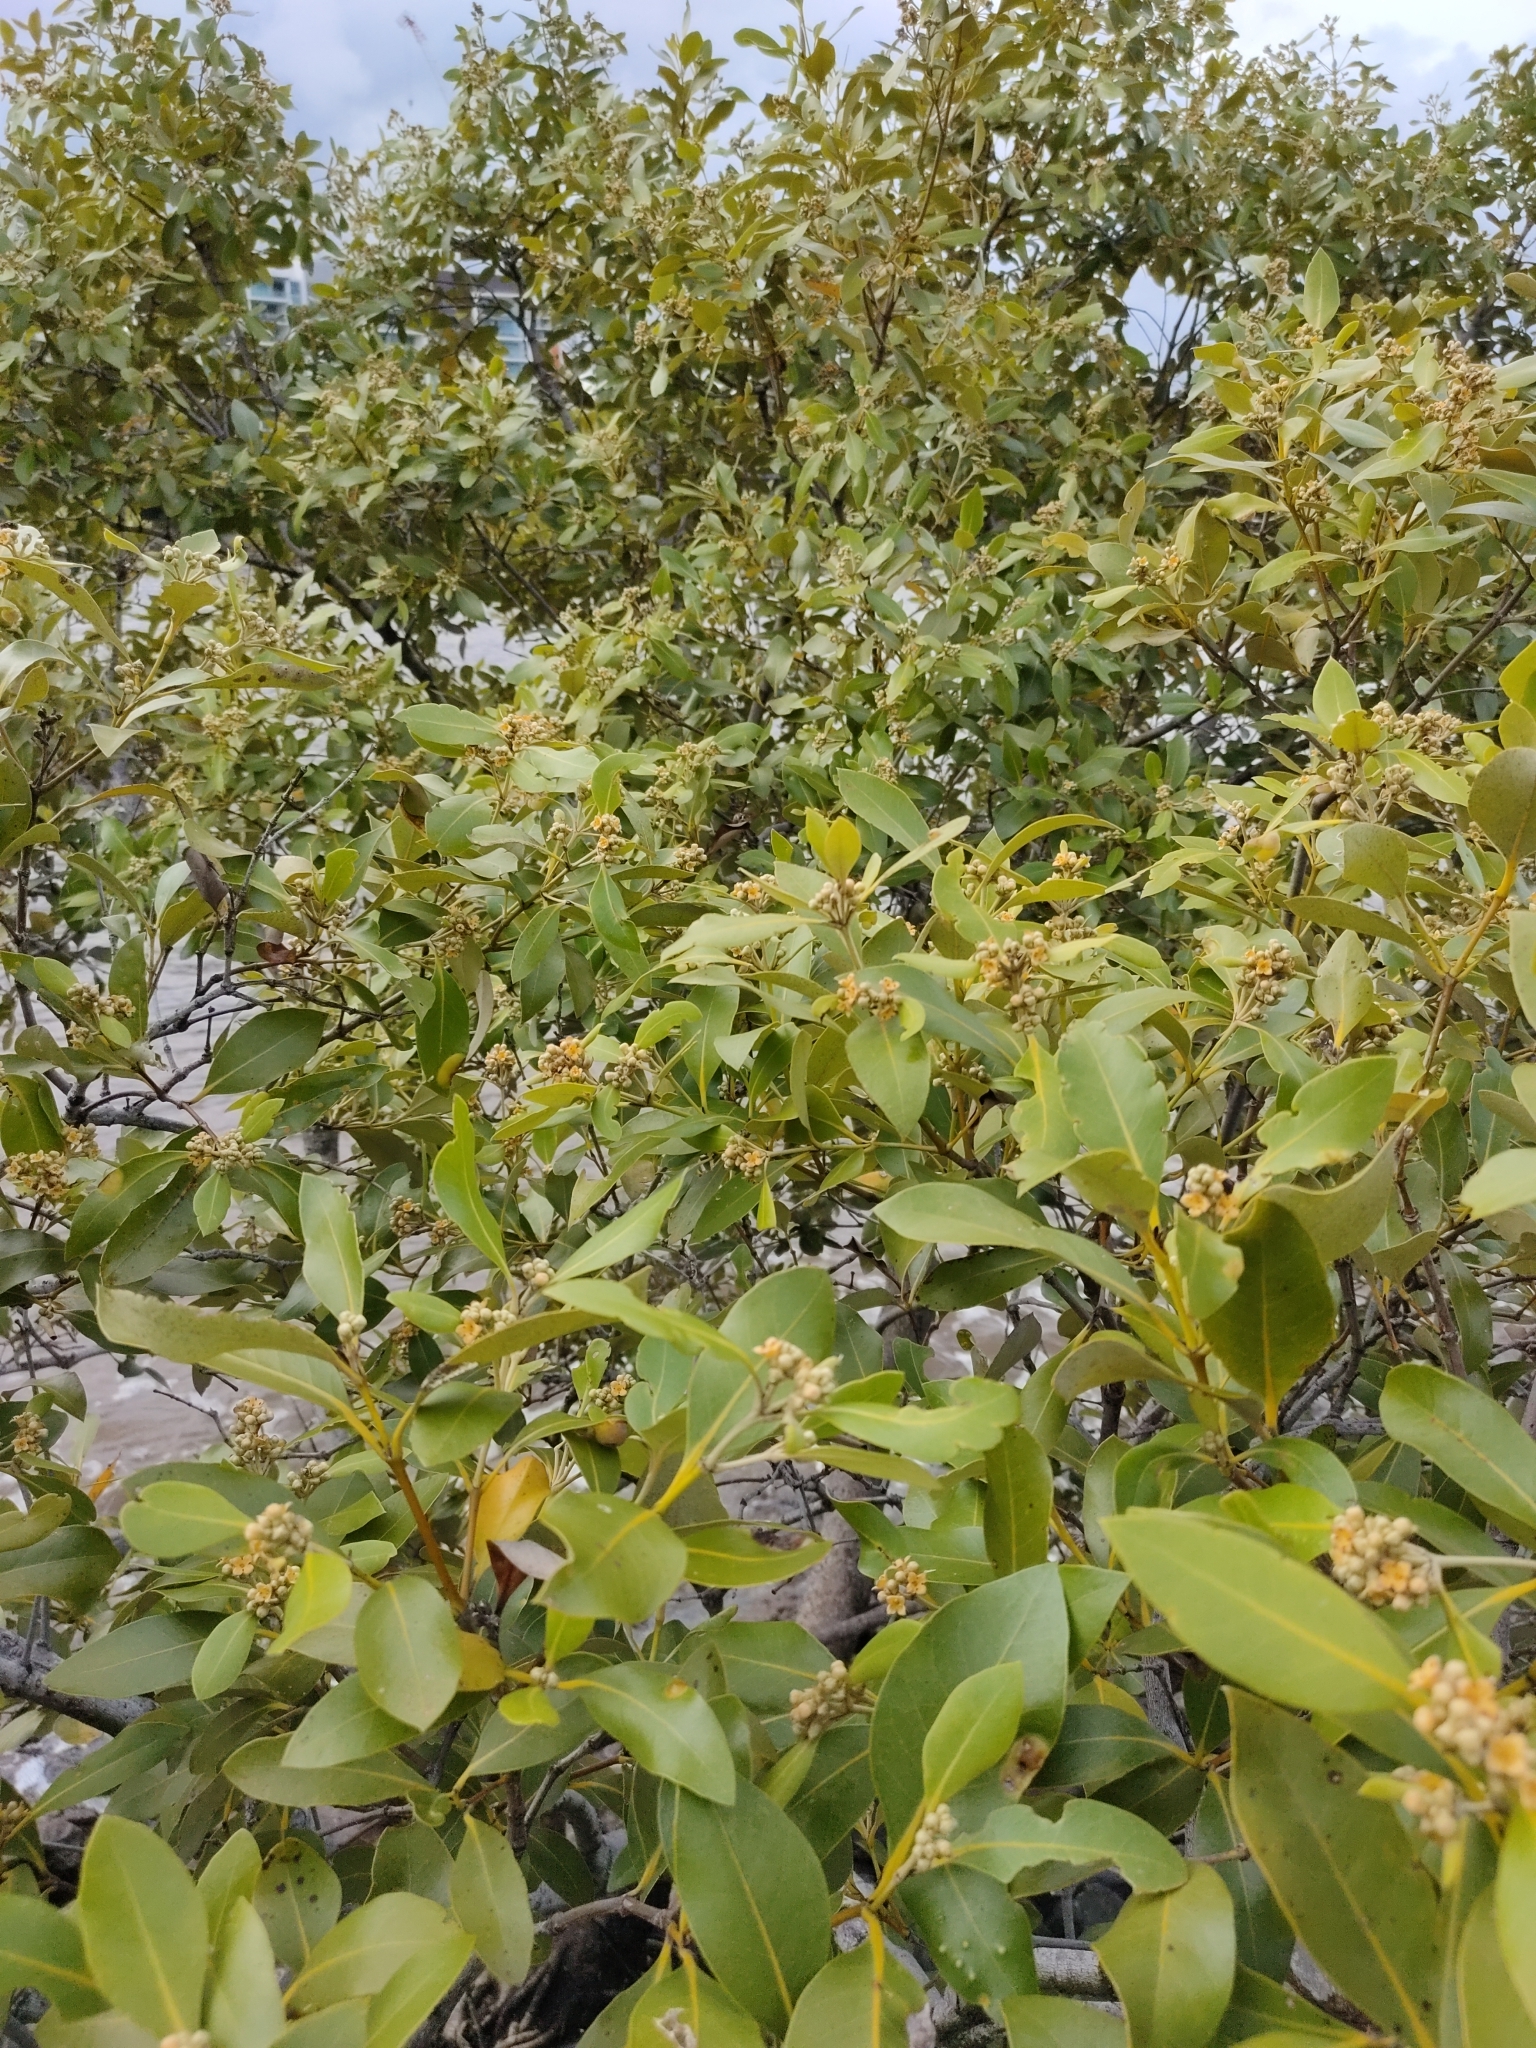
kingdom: Plantae
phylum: Tracheophyta
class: Magnoliopsida
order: Lamiales
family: Acanthaceae
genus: Avicennia
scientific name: Avicennia marina
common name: Gray mangrove
